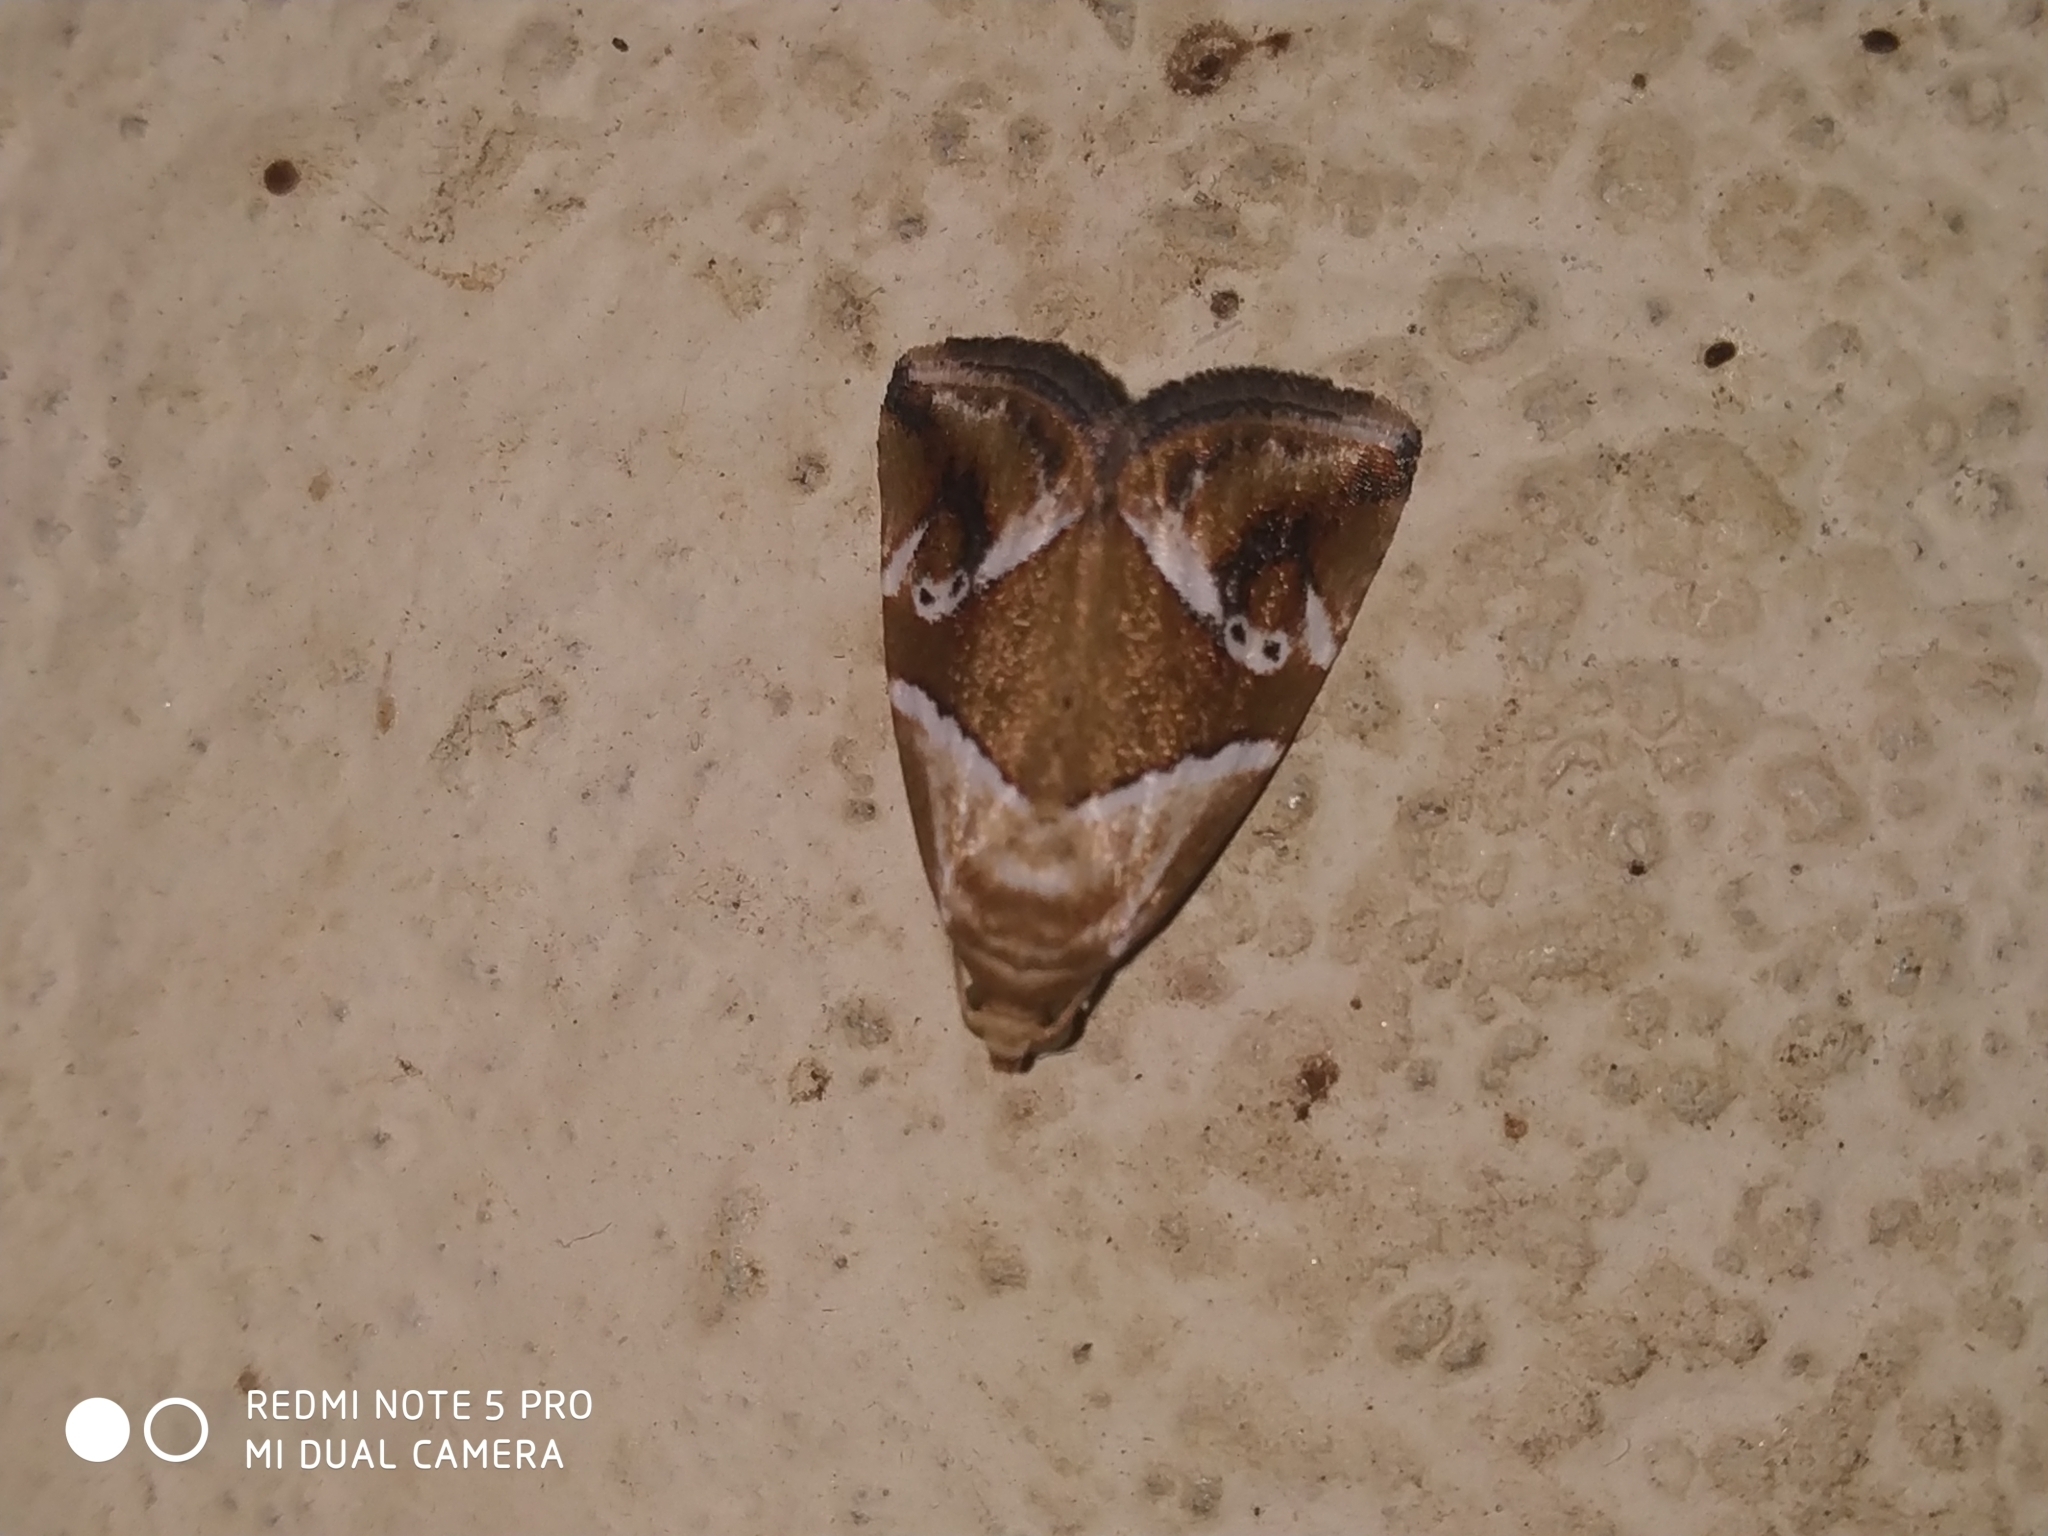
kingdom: Animalia
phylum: Arthropoda
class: Insecta
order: Lepidoptera
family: Noctuidae
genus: Maliattha
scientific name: Maliattha lativitta
